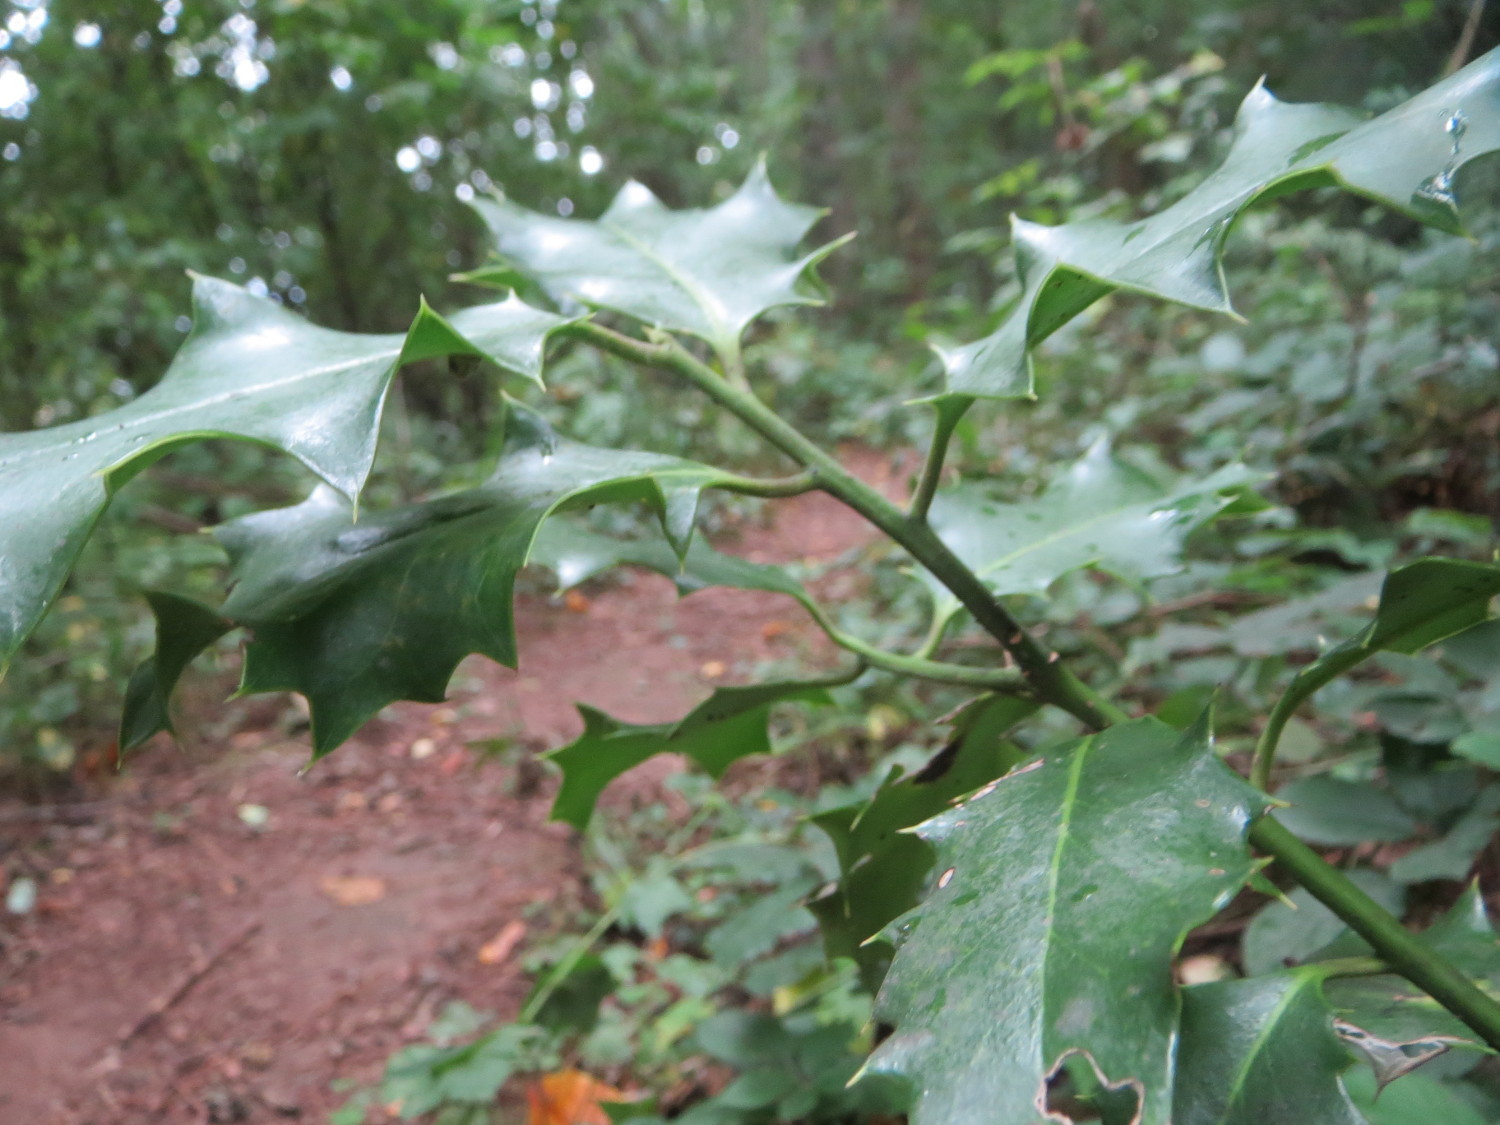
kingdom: Plantae
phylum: Tracheophyta
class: Magnoliopsida
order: Aquifoliales
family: Aquifoliaceae
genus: Ilex
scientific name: Ilex aquifolium
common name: English holly
